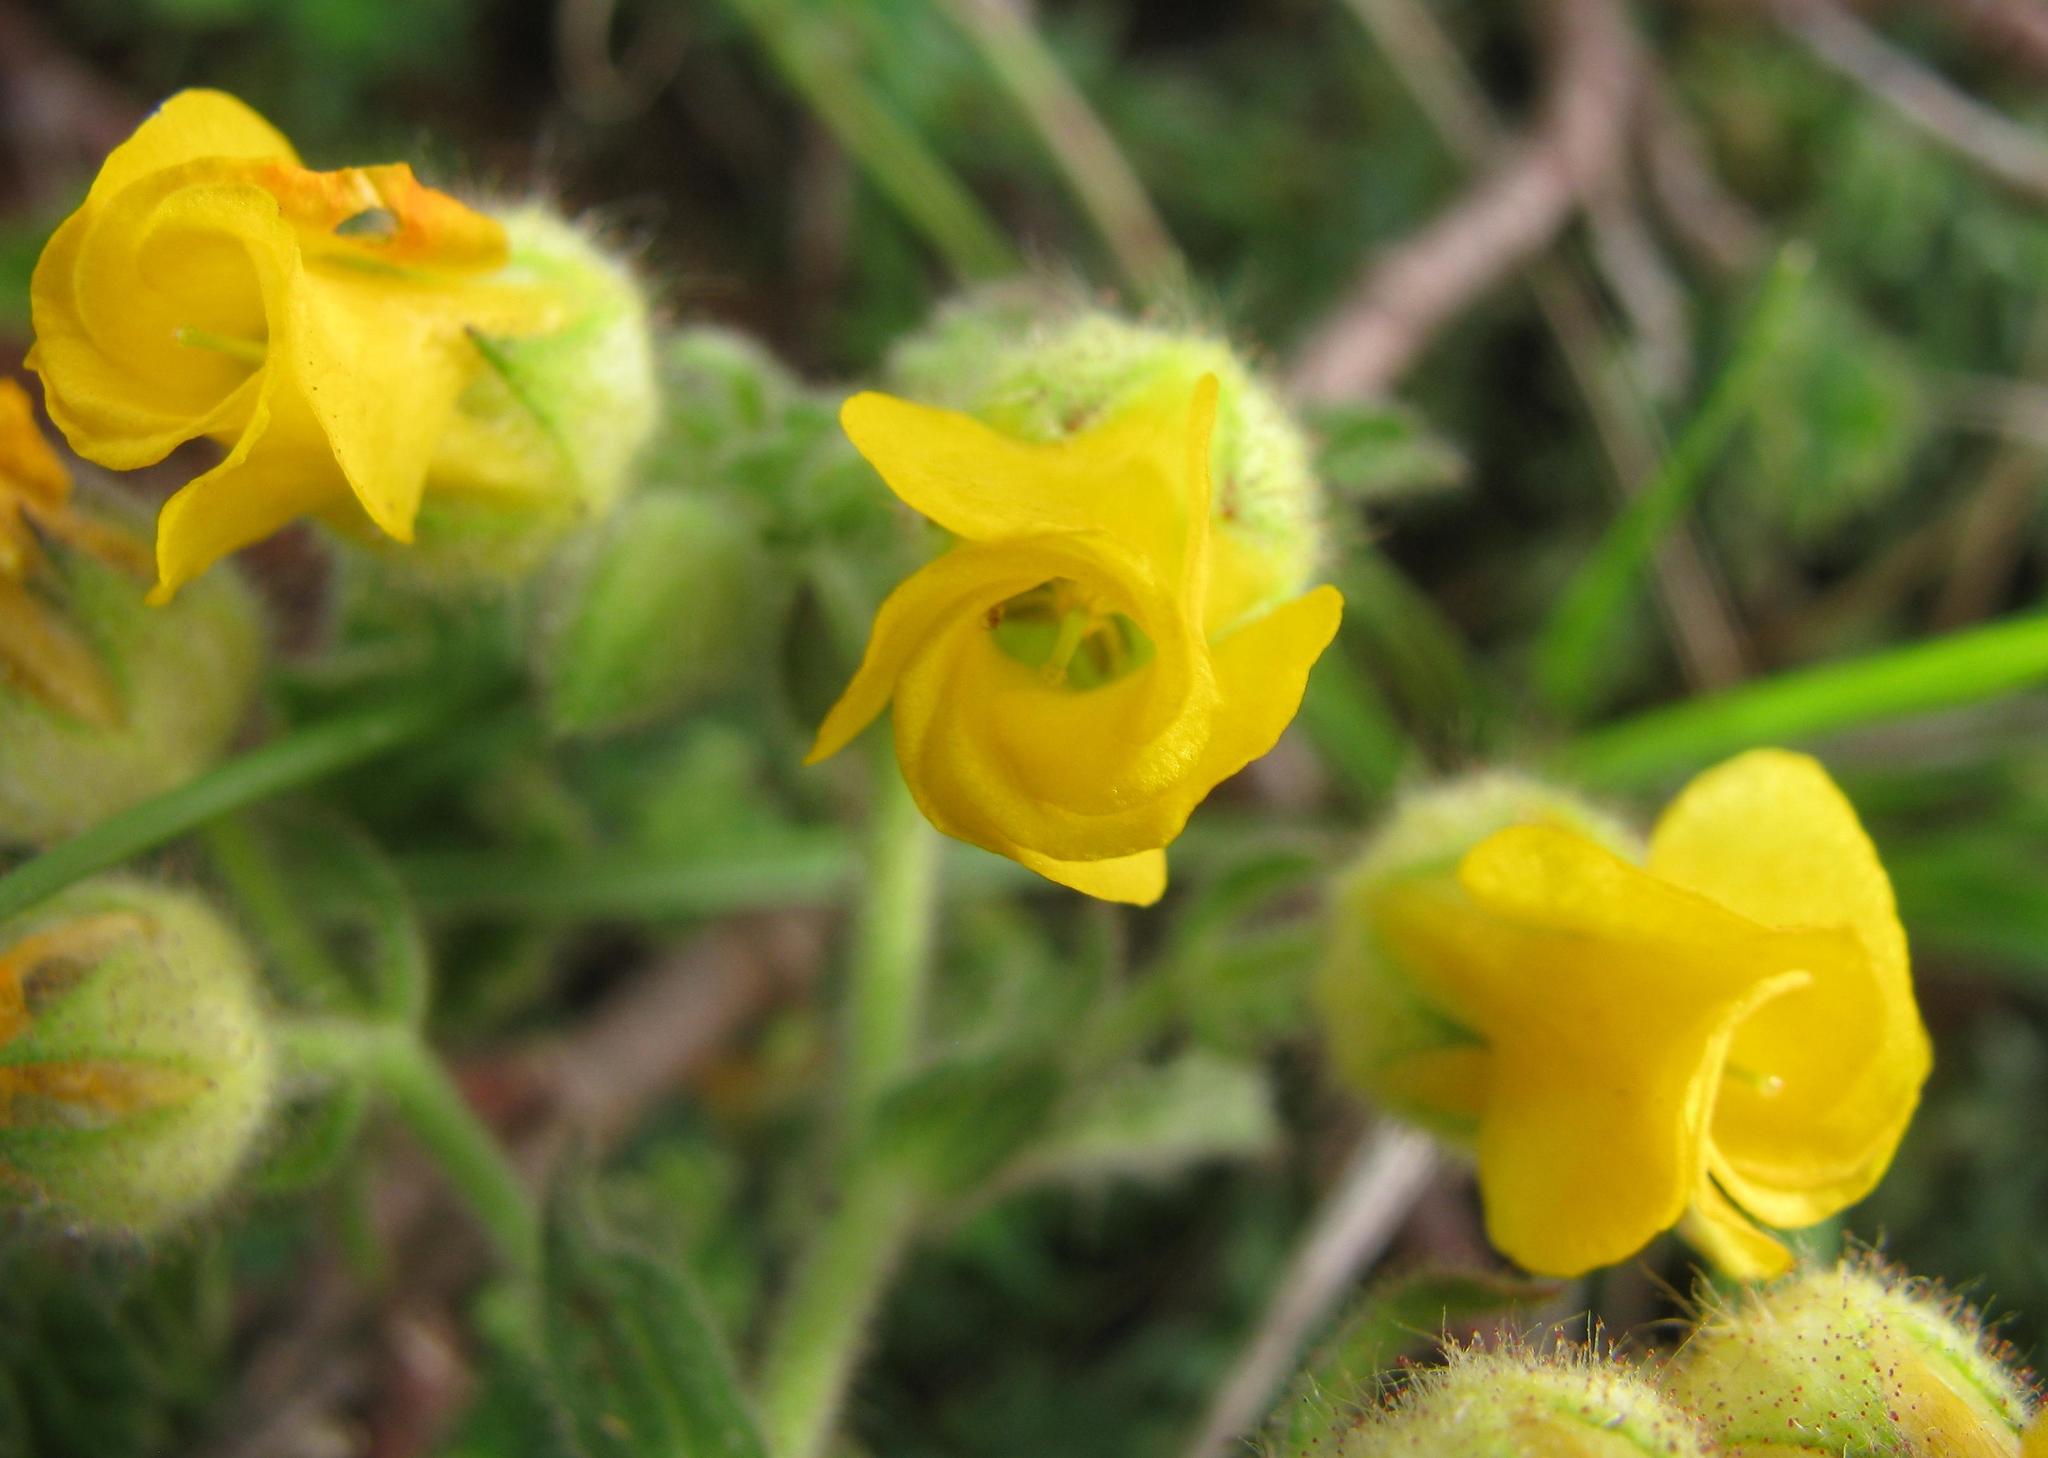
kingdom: Plantae
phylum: Tracheophyta
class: Magnoliopsida
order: Malvales
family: Malvaceae
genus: Hermannia
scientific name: Hermannia althaeifolia
